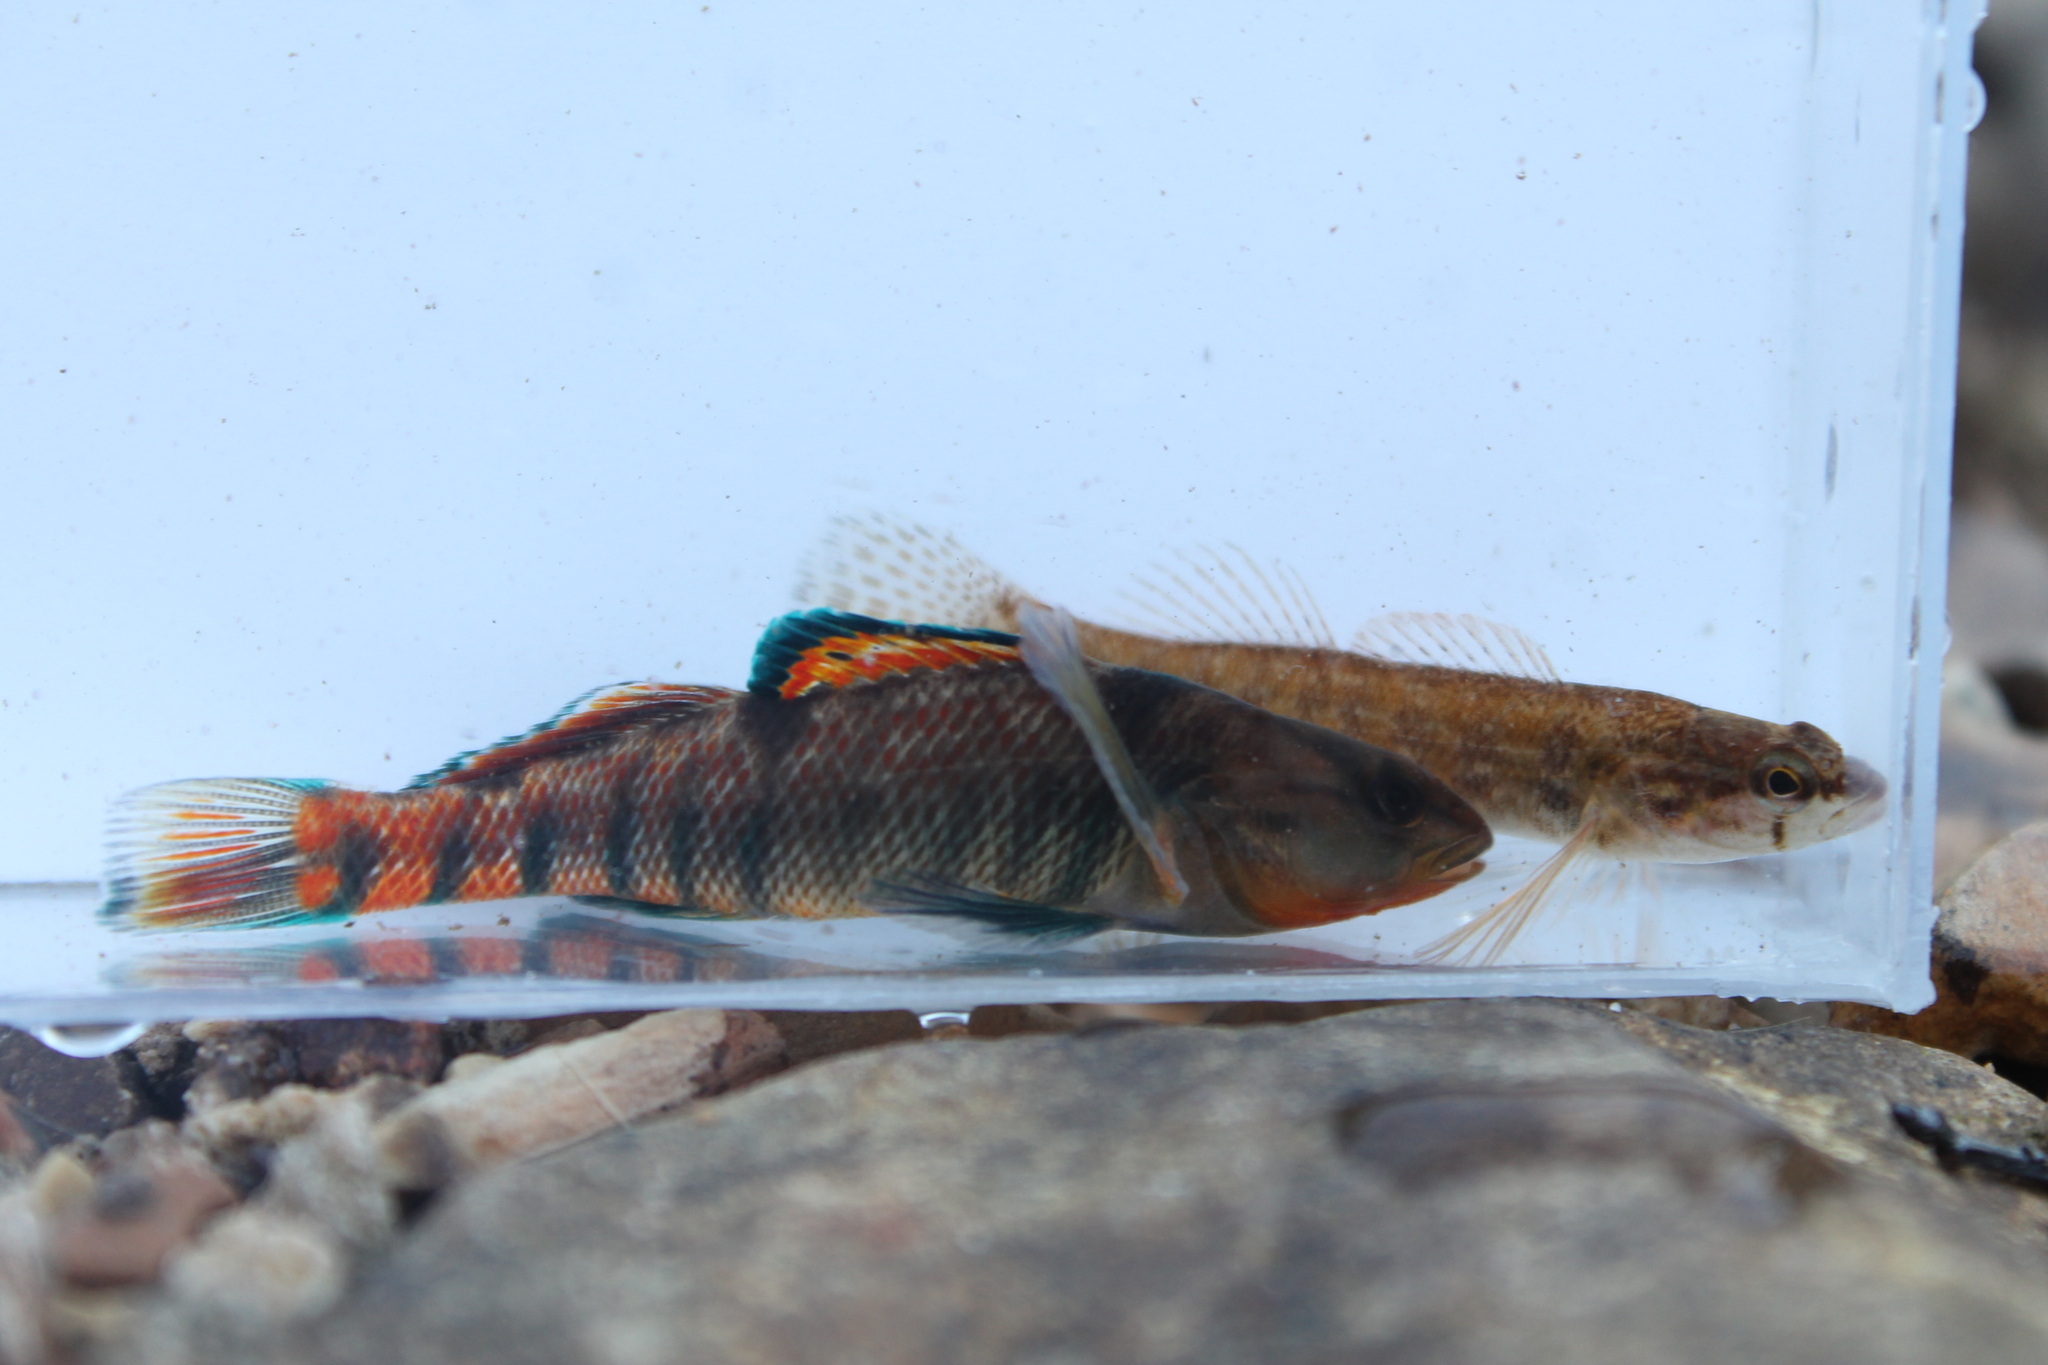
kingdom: Animalia
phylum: Chordata
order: Perciformes
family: Percidae
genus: Etheostoma
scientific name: Etheostoma caeruleum
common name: Rainbow darter
